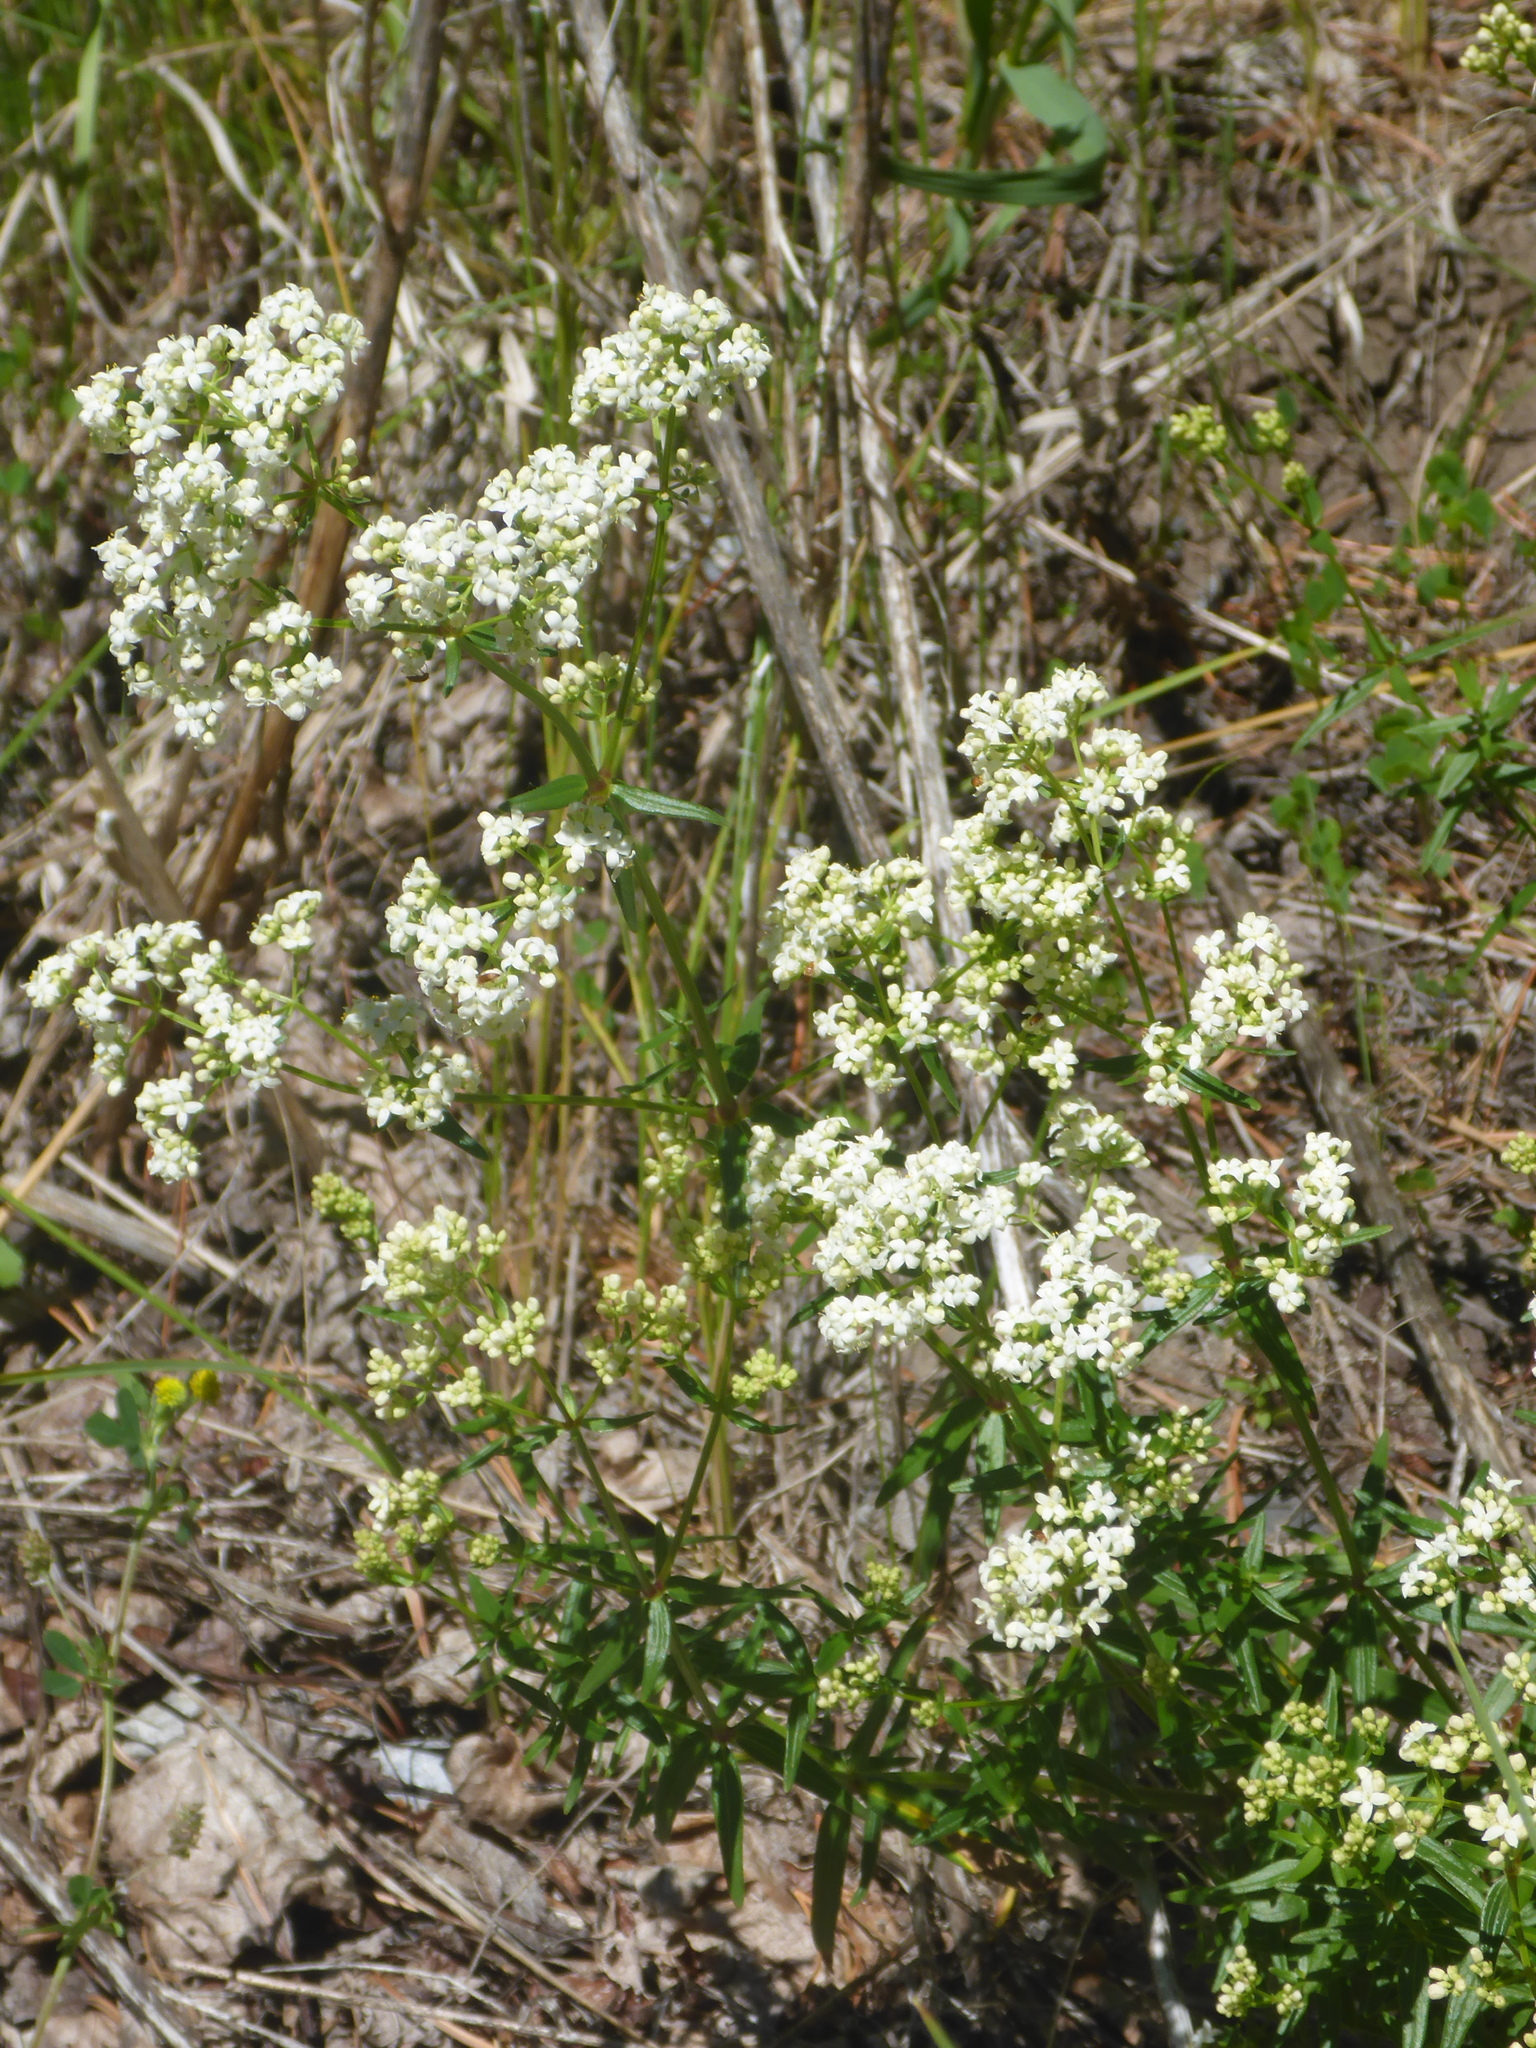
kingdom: Plantae
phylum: Tracheophyta
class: Magnoliopsida
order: Gentianales
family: Rubiaceae
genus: Galium
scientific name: Galium boreale
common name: Northern bedstraw
